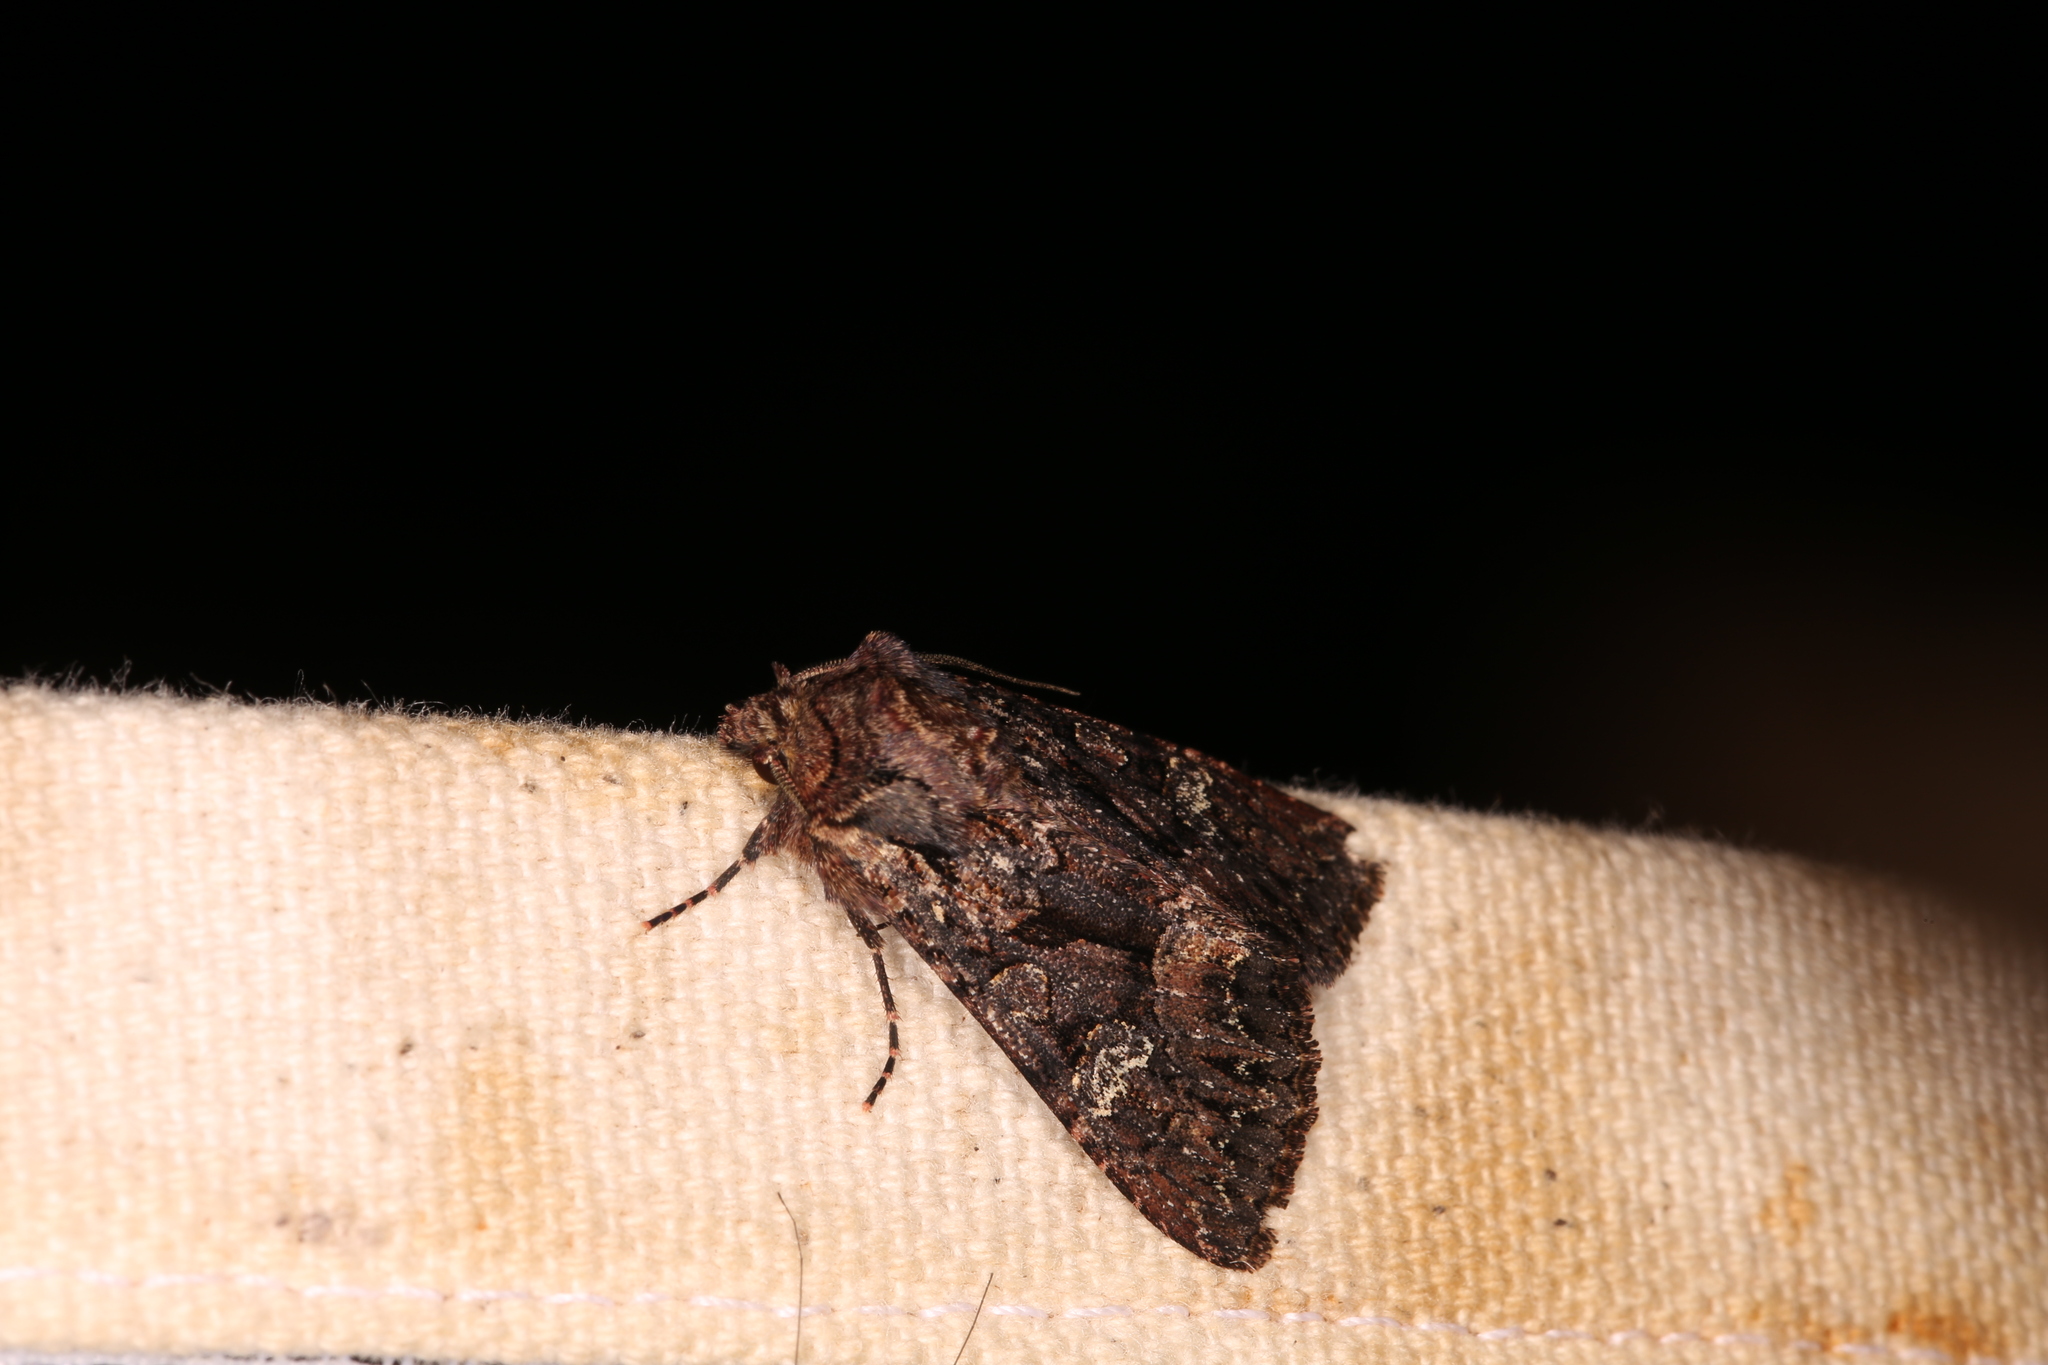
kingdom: Animalia
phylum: Arthropoda
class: Insecta
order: Lepidoptera
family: Noctuidae
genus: Mniotype
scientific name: Mniotype adusta
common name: Dark brocade
